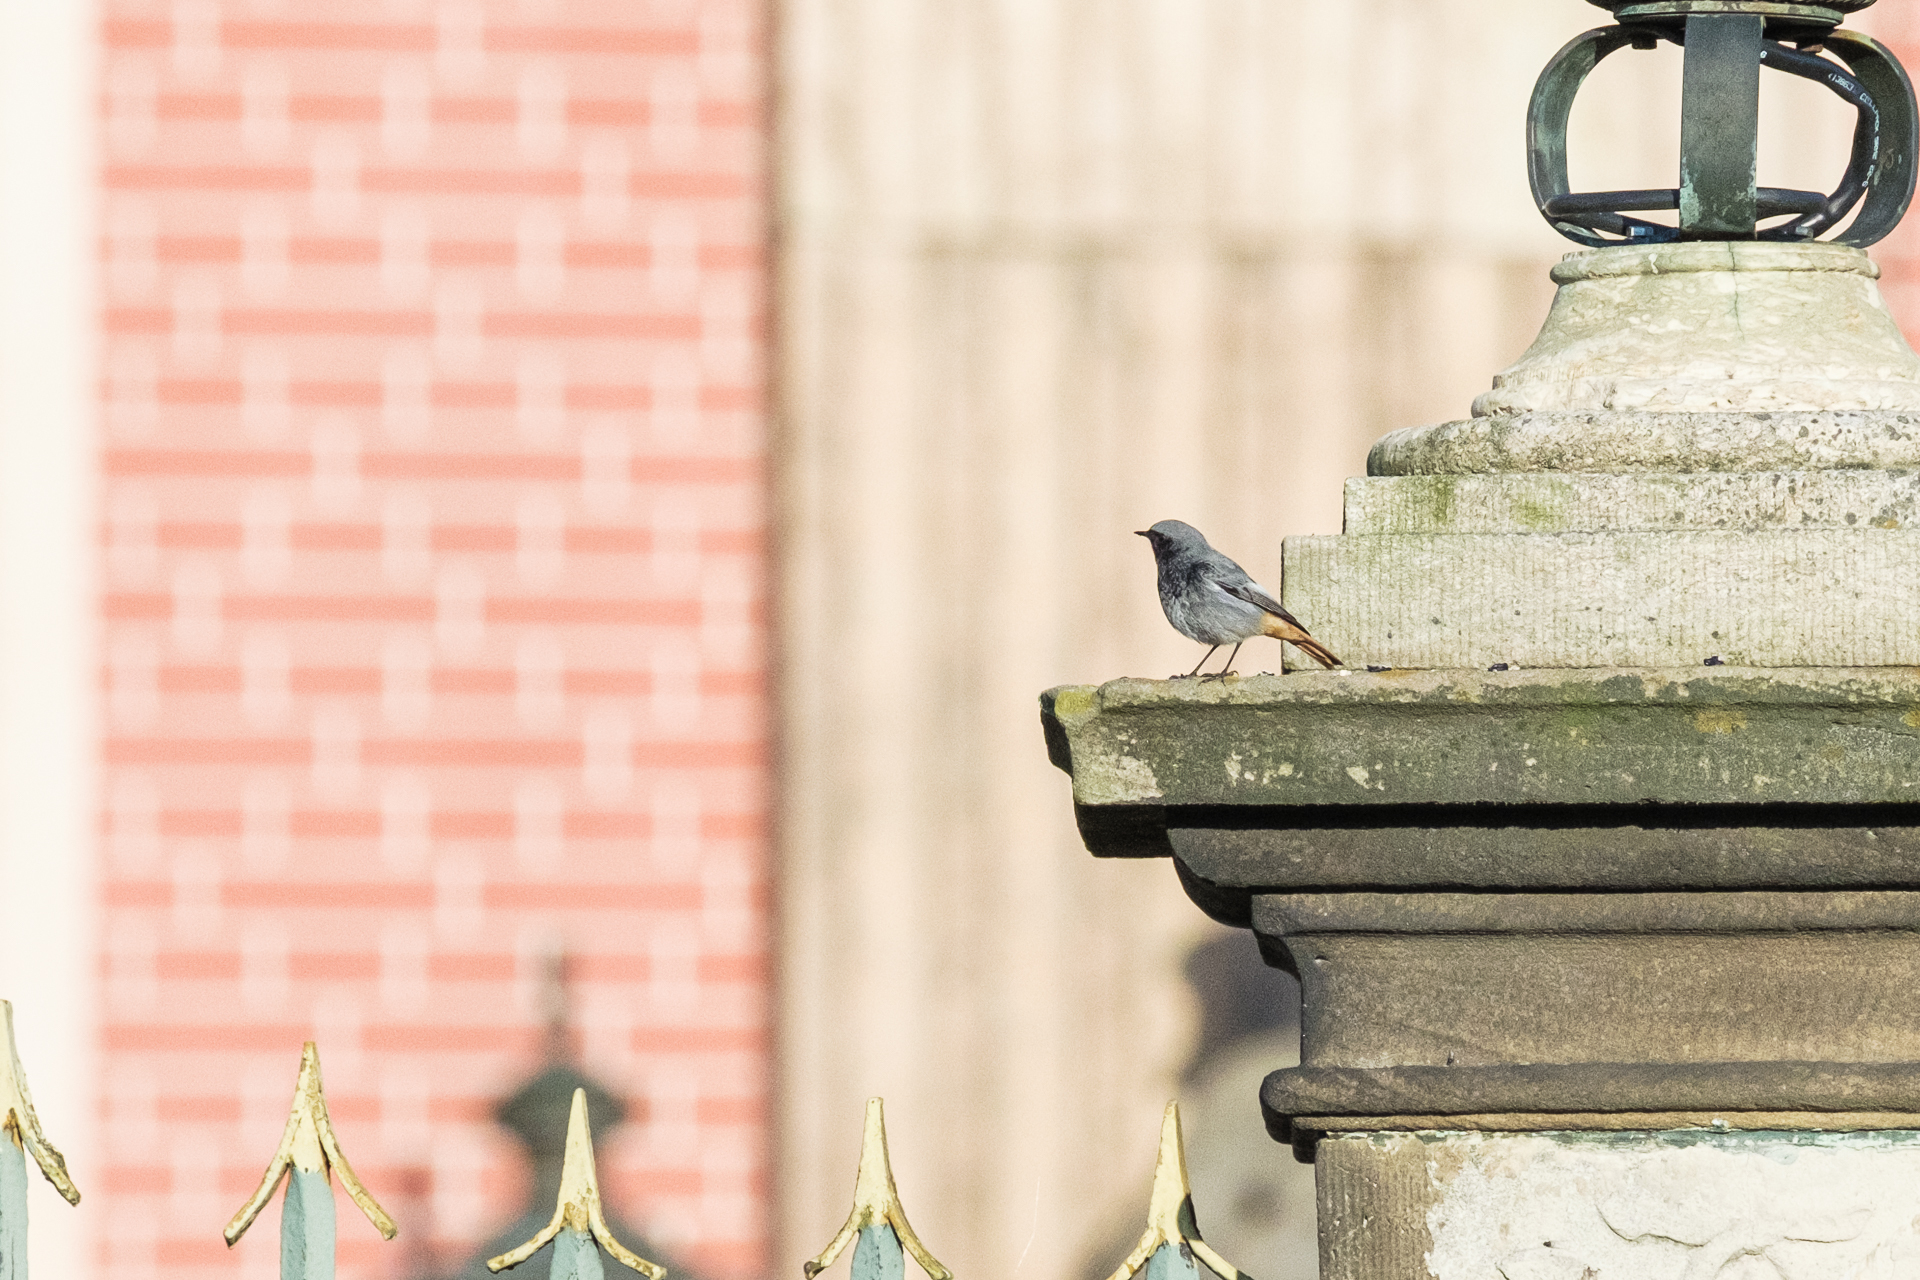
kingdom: Animalia
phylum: Chordata
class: Aves
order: Passeriformes
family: Muscicapidae
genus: Phoenicurus
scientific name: Phoenicurus ochruros
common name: Black redstart
